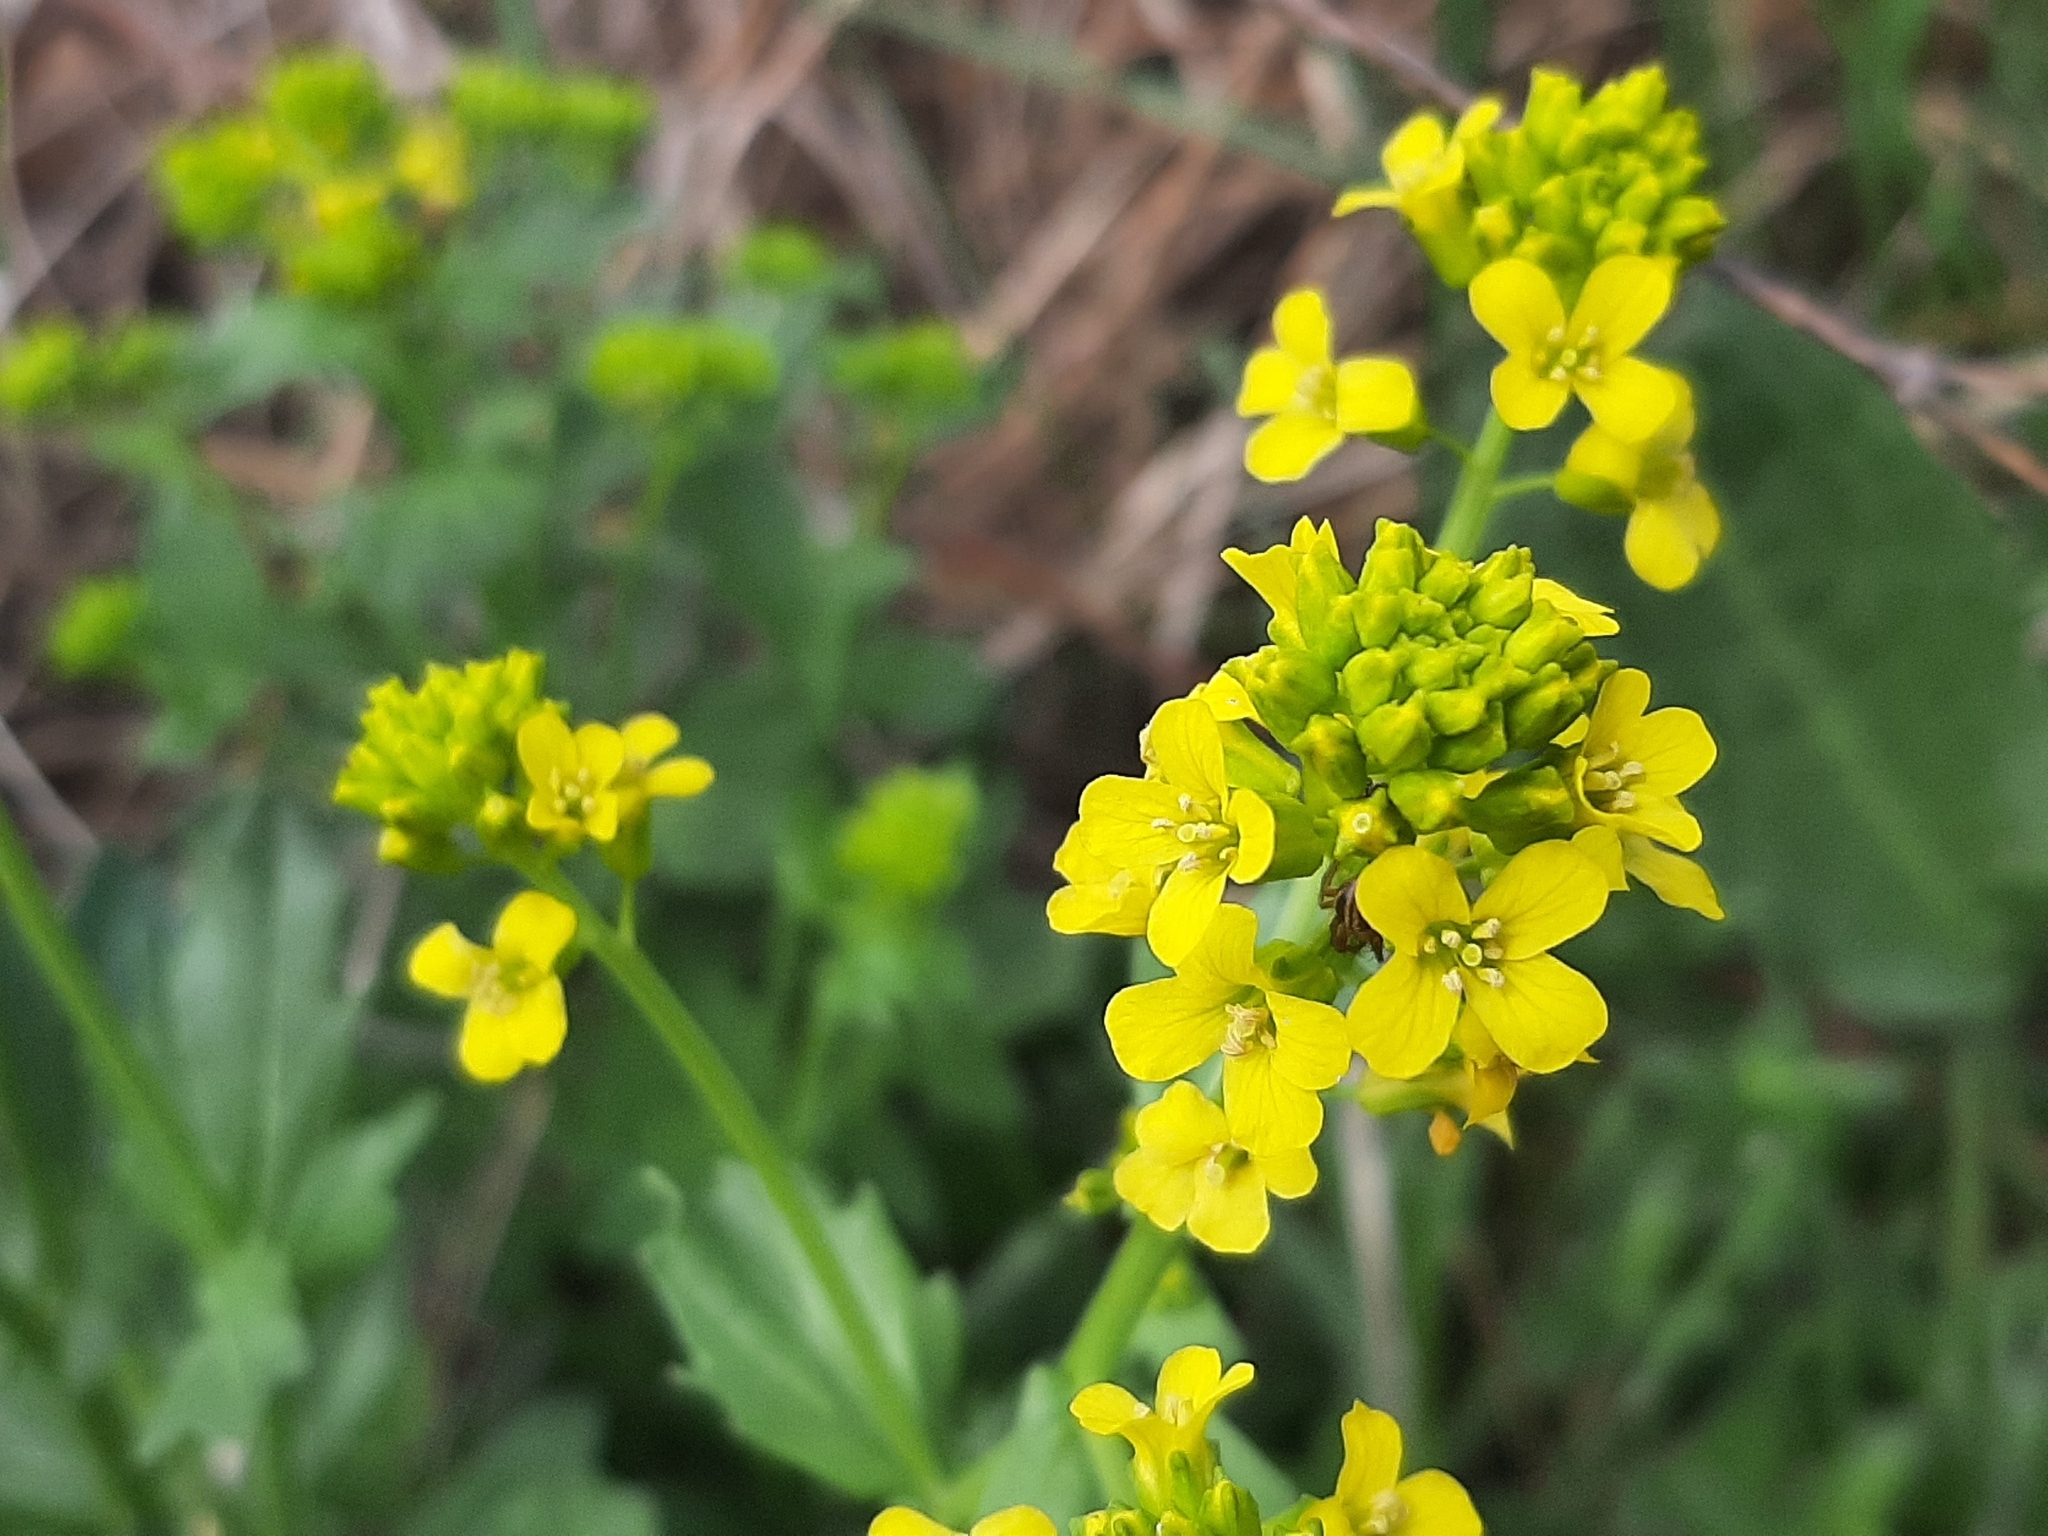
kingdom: Plantae
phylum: Tracheophyta
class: Magnoliopsida
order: Brassicales
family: Brassicaceae
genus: Barbarea
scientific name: Barbarea vulgaris
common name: Cressy-greens
